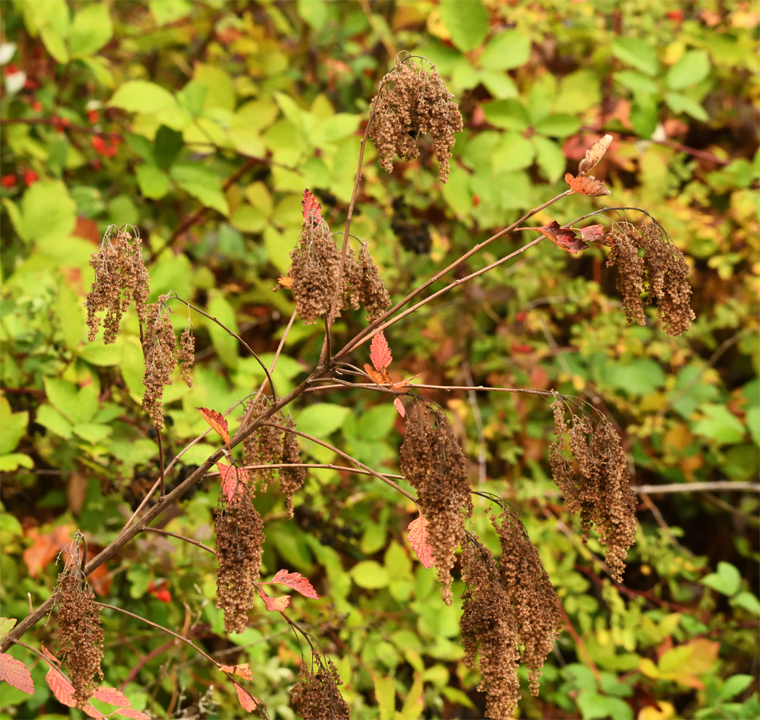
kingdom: Plantae
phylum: Tracheophyta
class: Magnoliopsida
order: Rosales
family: Rosaceae
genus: Holodiscus
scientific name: Holodiscus discolor
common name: Oceanspray
